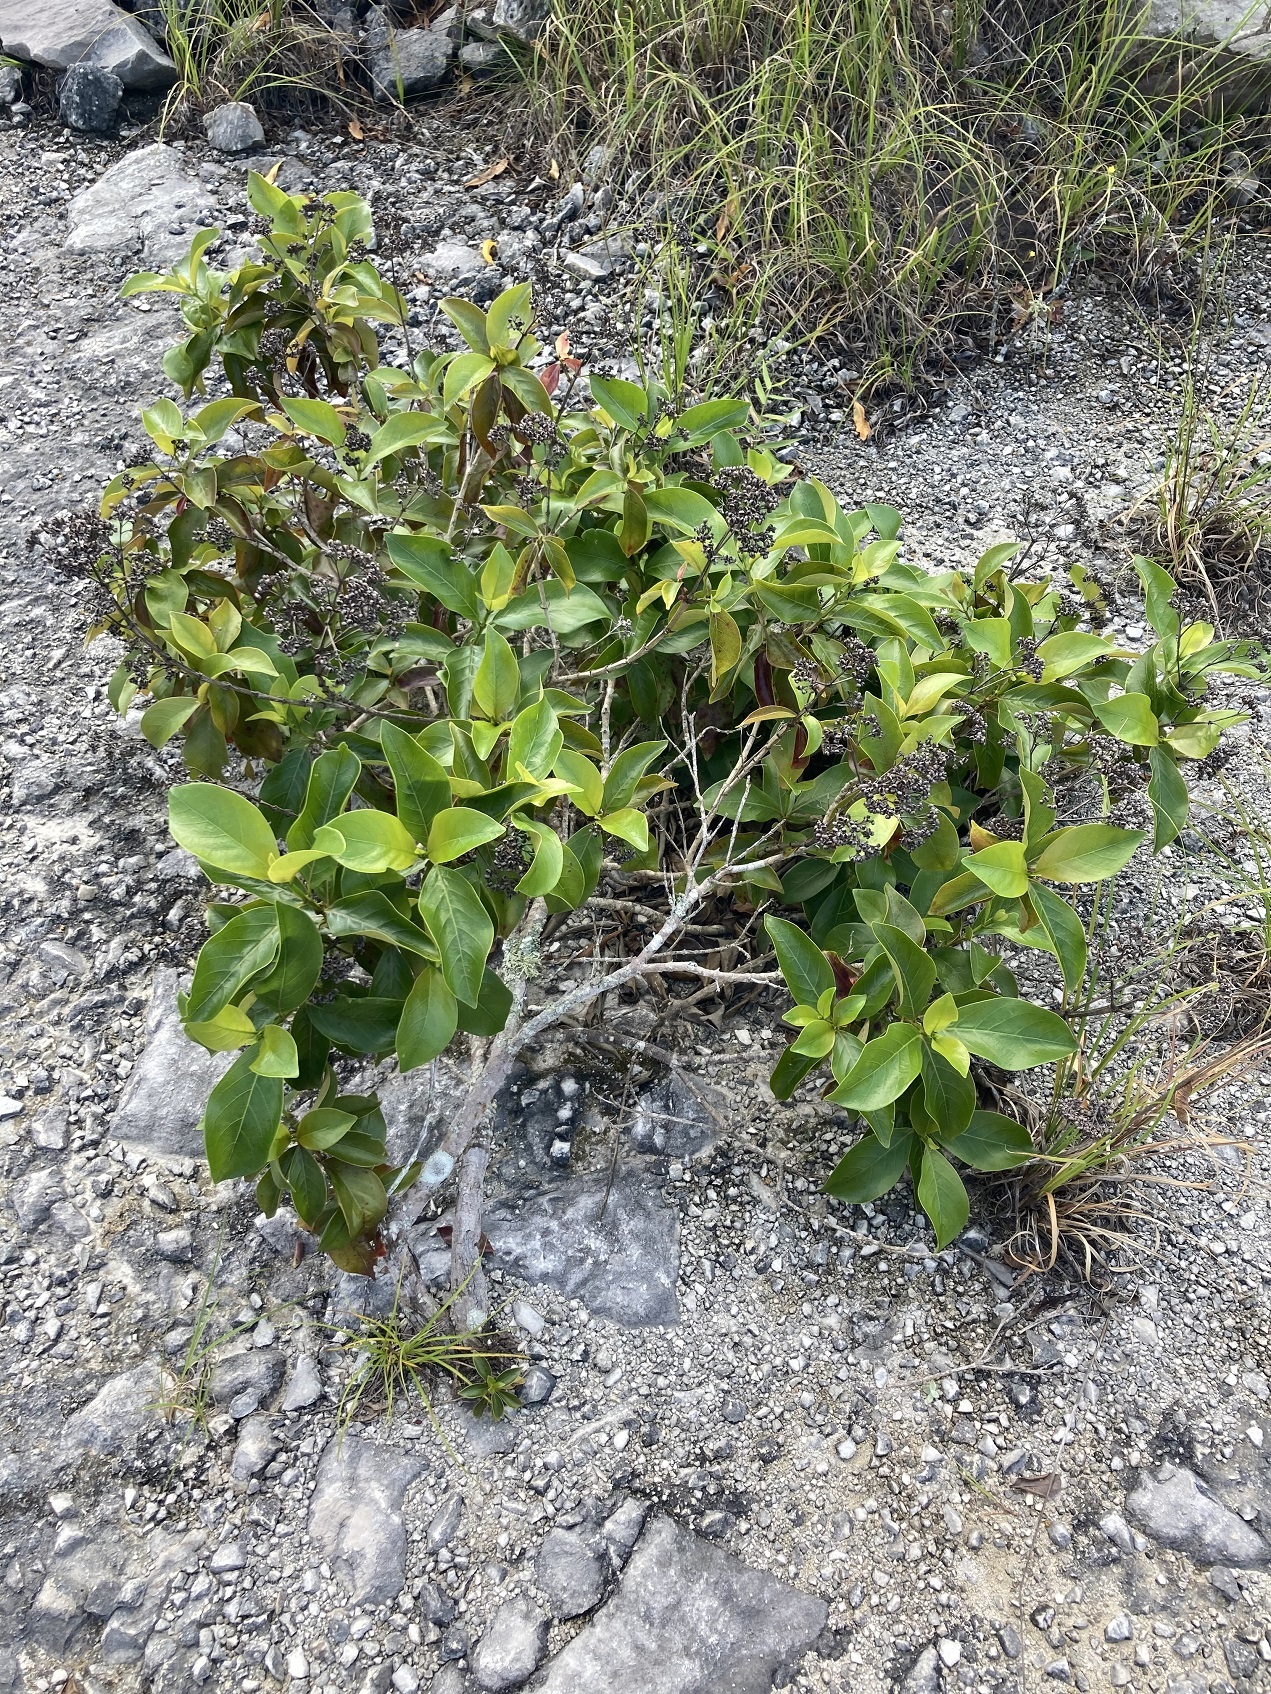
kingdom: Plantae
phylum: Tracheophyta
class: Magnoliopsida
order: Gentianales
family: Rubiaceae
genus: Rogiera
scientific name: Rogiera stenosiphon
